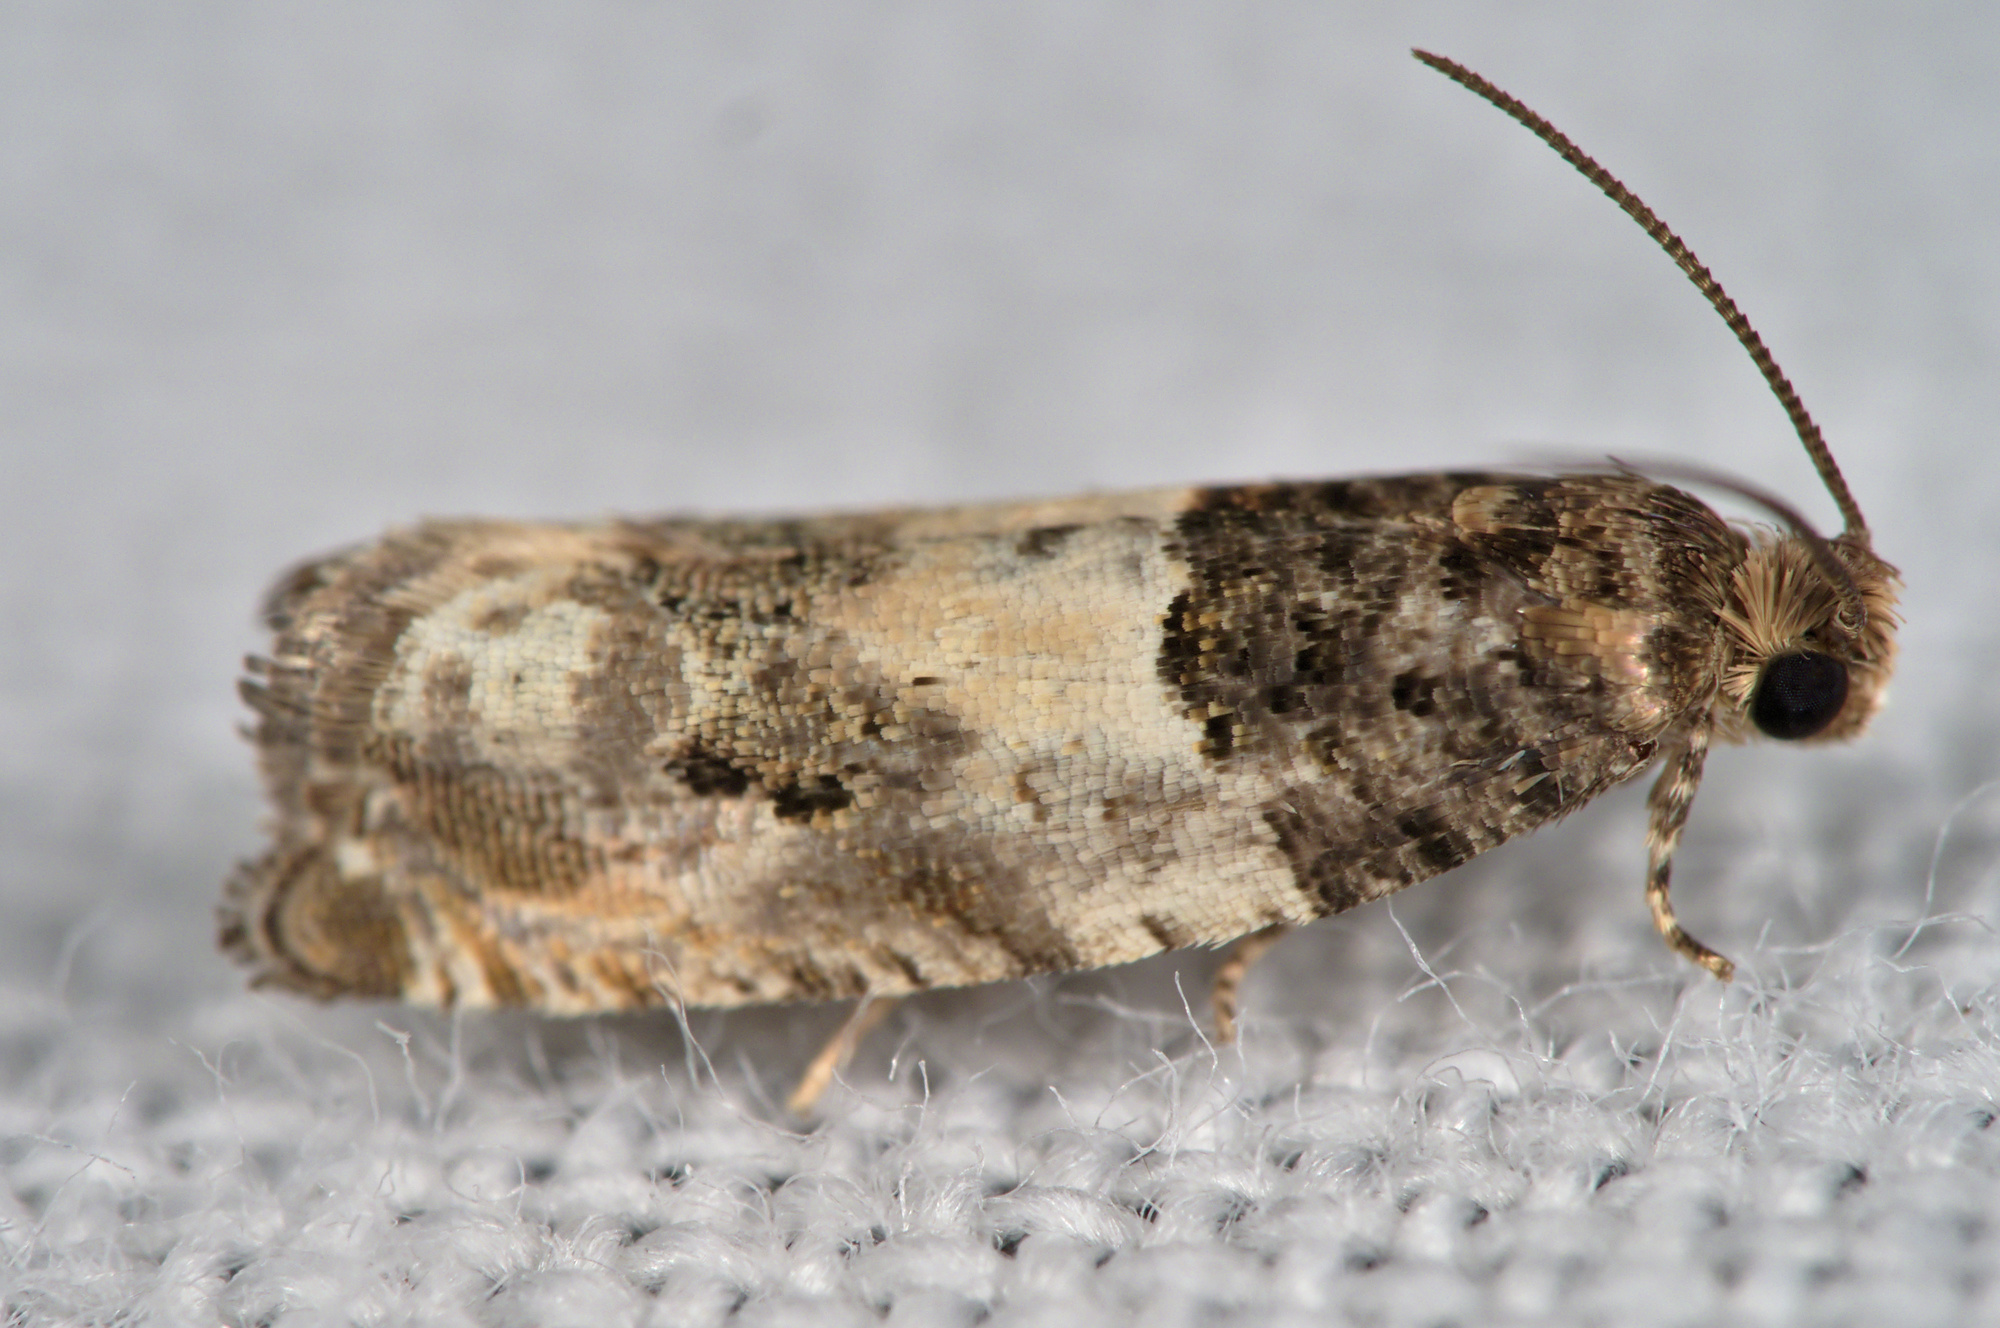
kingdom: Animalia
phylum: Arthropoda
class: Insecta
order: Lepidoptera
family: Tortricidae
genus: Gypsonoma
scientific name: Gypsonoma dealbana
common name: Common cloaked shoot
